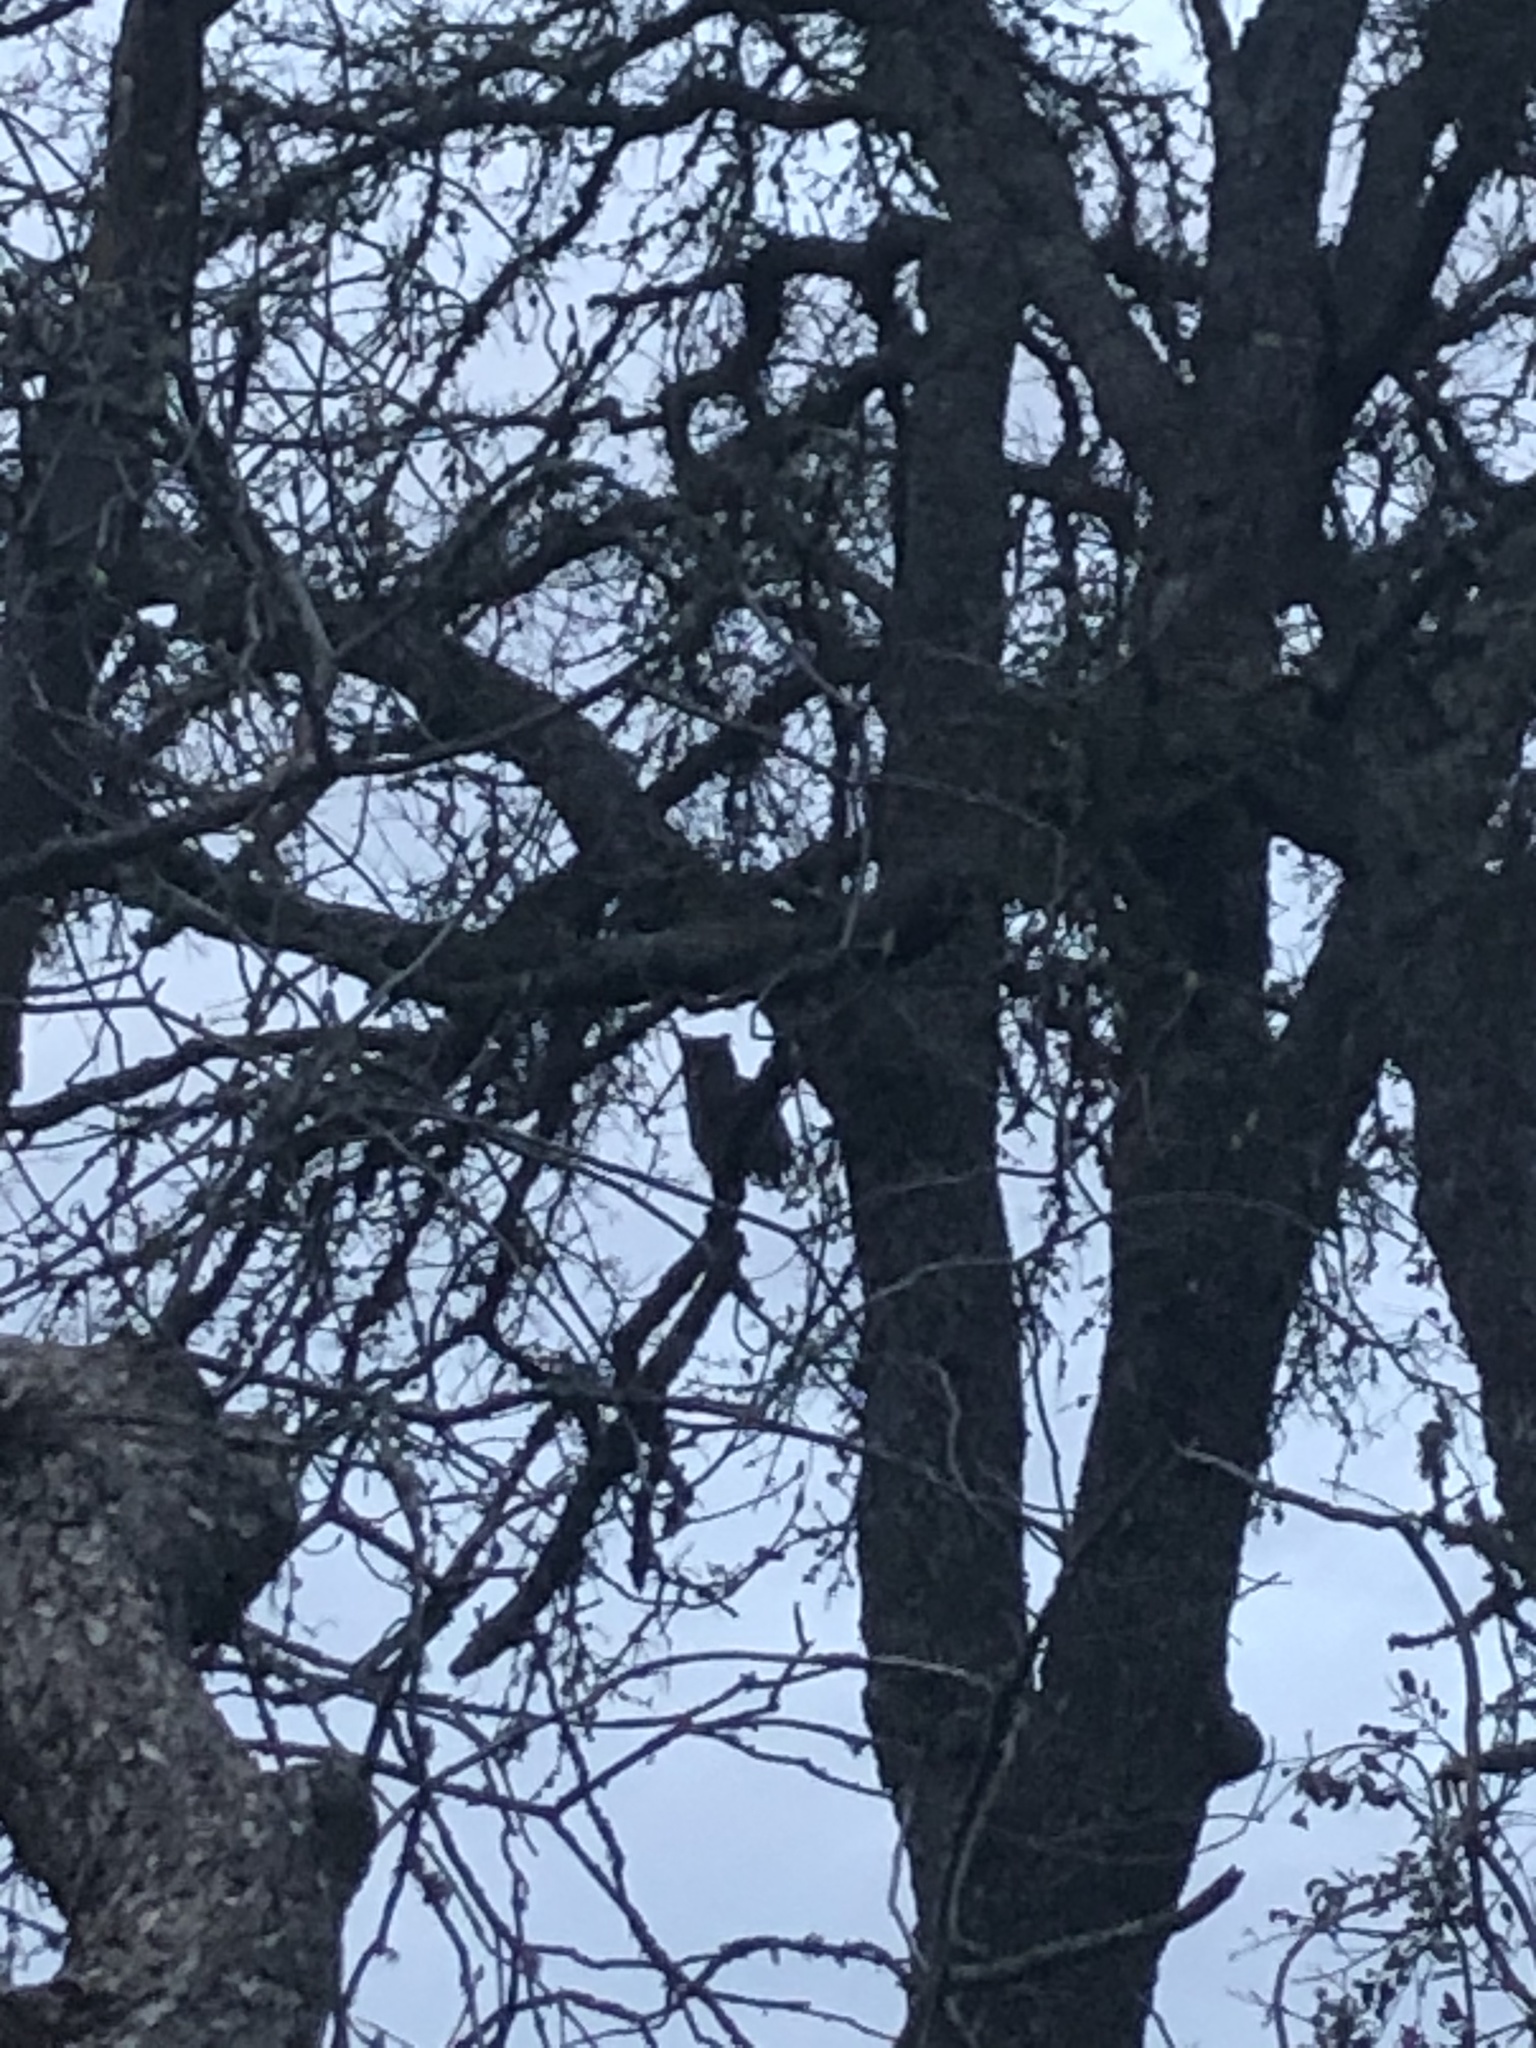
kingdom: Animalia
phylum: Chordata
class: Aves
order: Strigiformes
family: Strigidae
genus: Bubo
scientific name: Bubo virginianus
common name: Great horned owl
